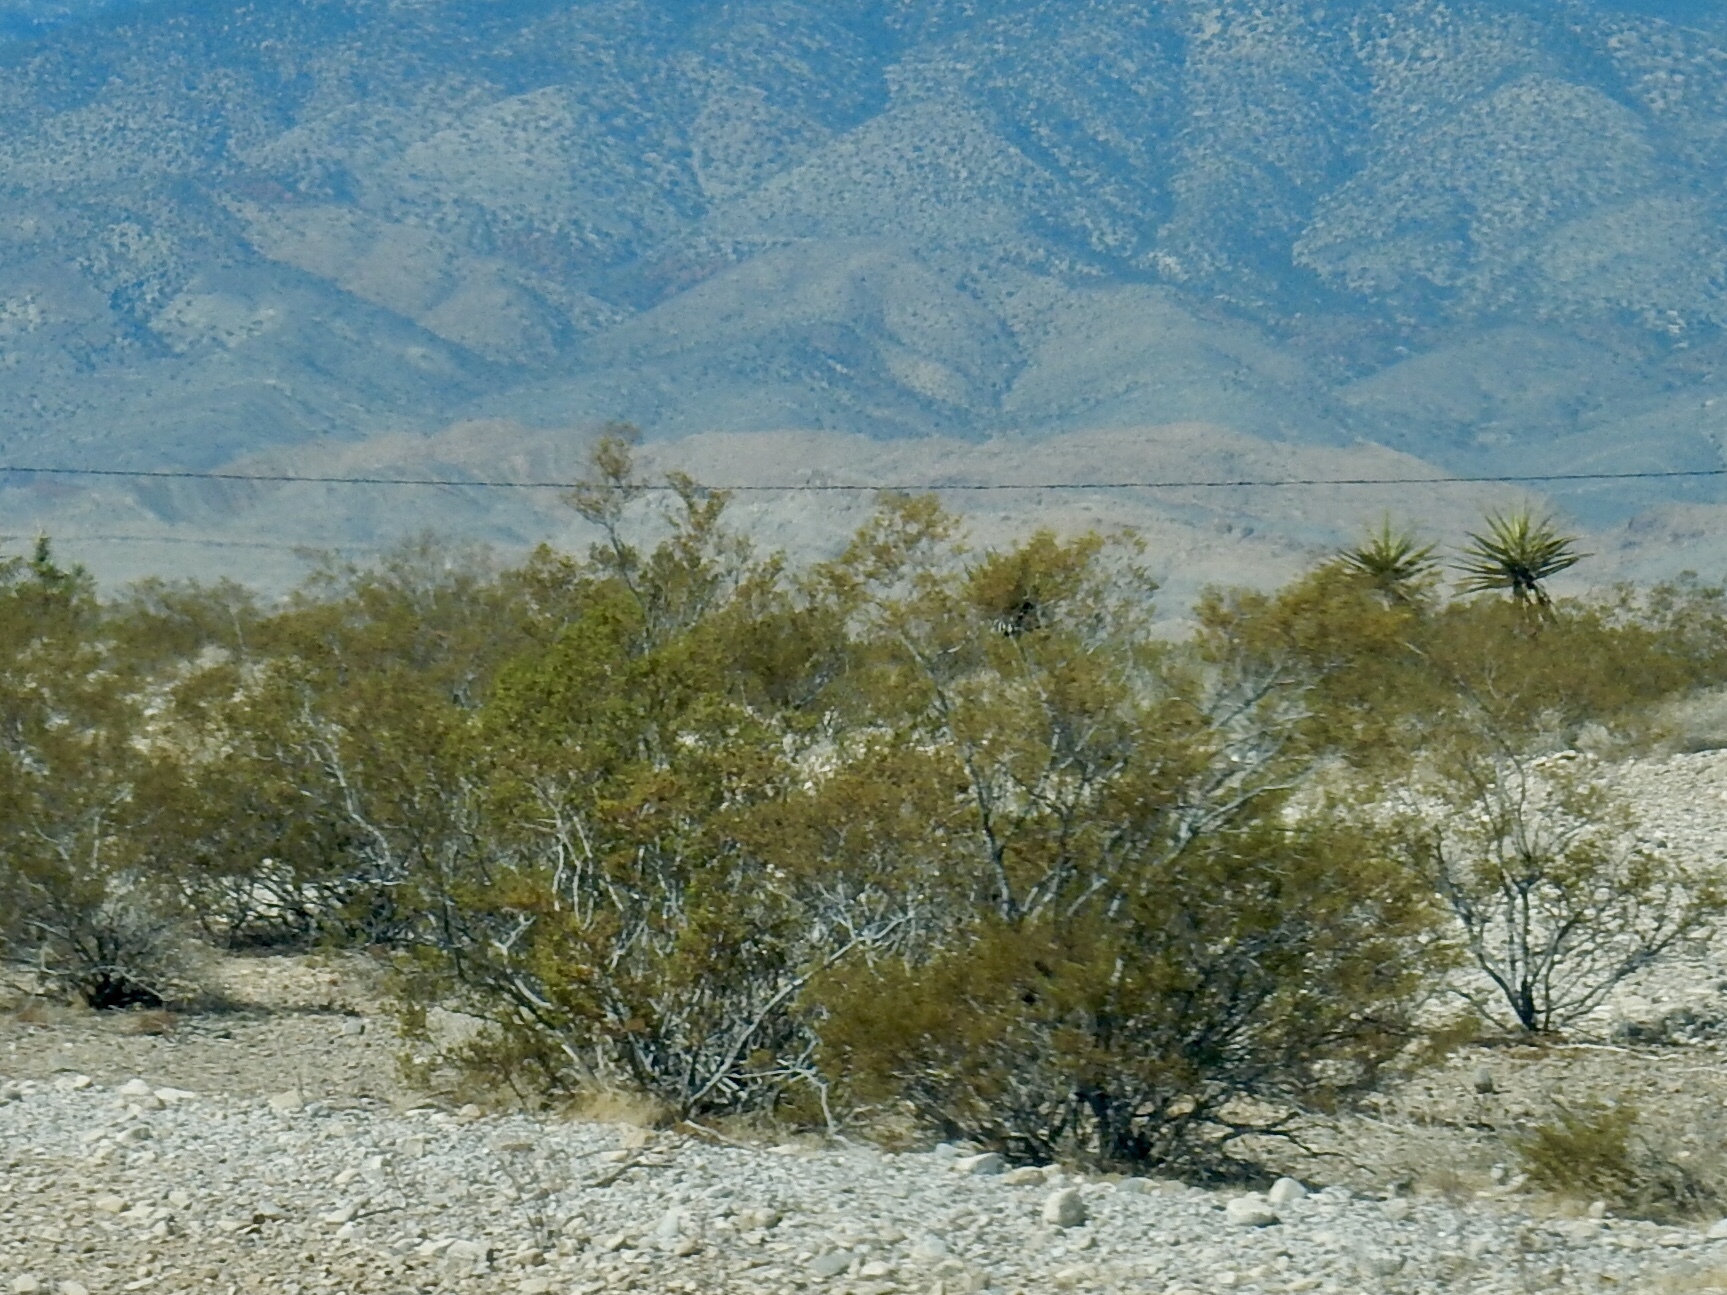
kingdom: Plantae
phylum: Tracheophyta
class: Magnoliopsida
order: Zygophyllales
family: Zygophyllaceae
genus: Larrea
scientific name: Larrea tridentata
